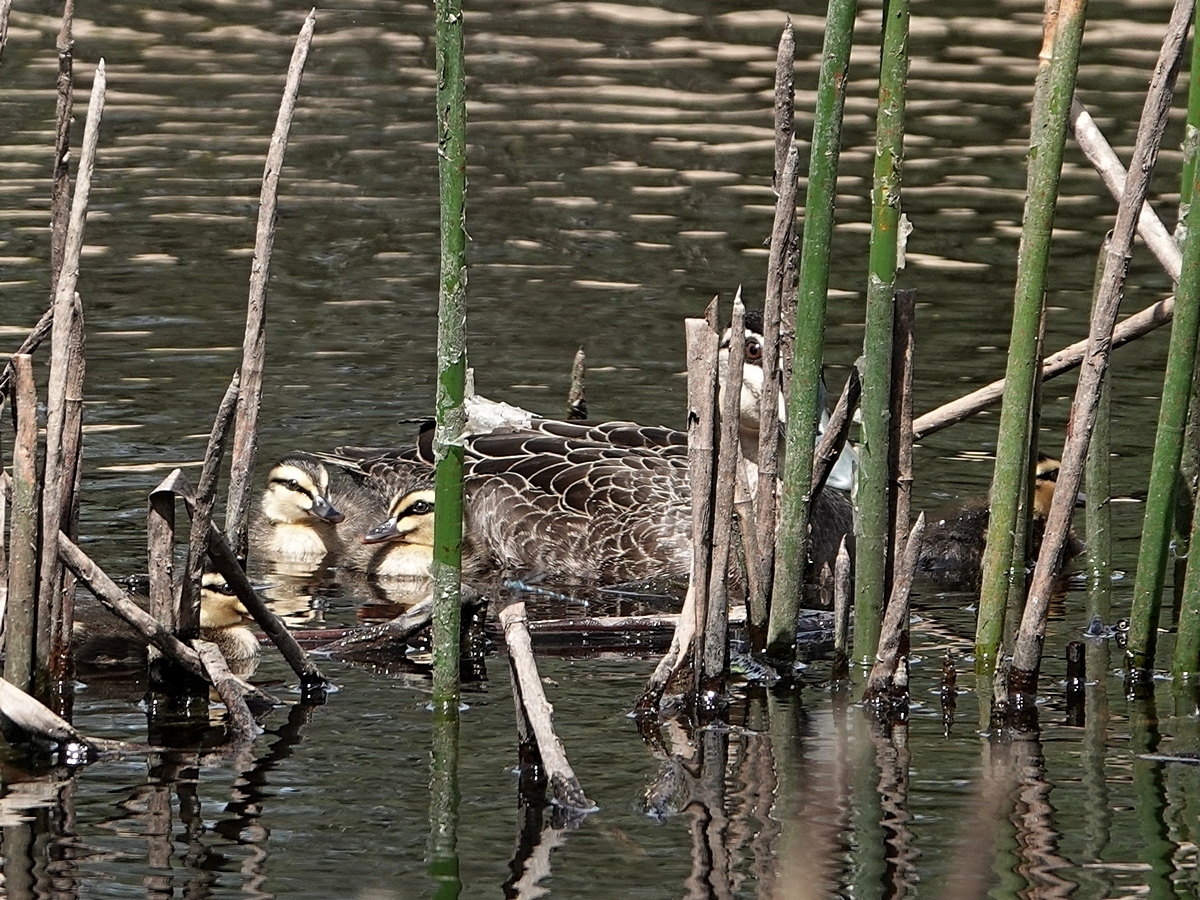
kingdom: Animalia
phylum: Chordata
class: Aves
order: Anseriformes
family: Anatidae
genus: Anas
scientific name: Anas superciliosa
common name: Pacific black duck
